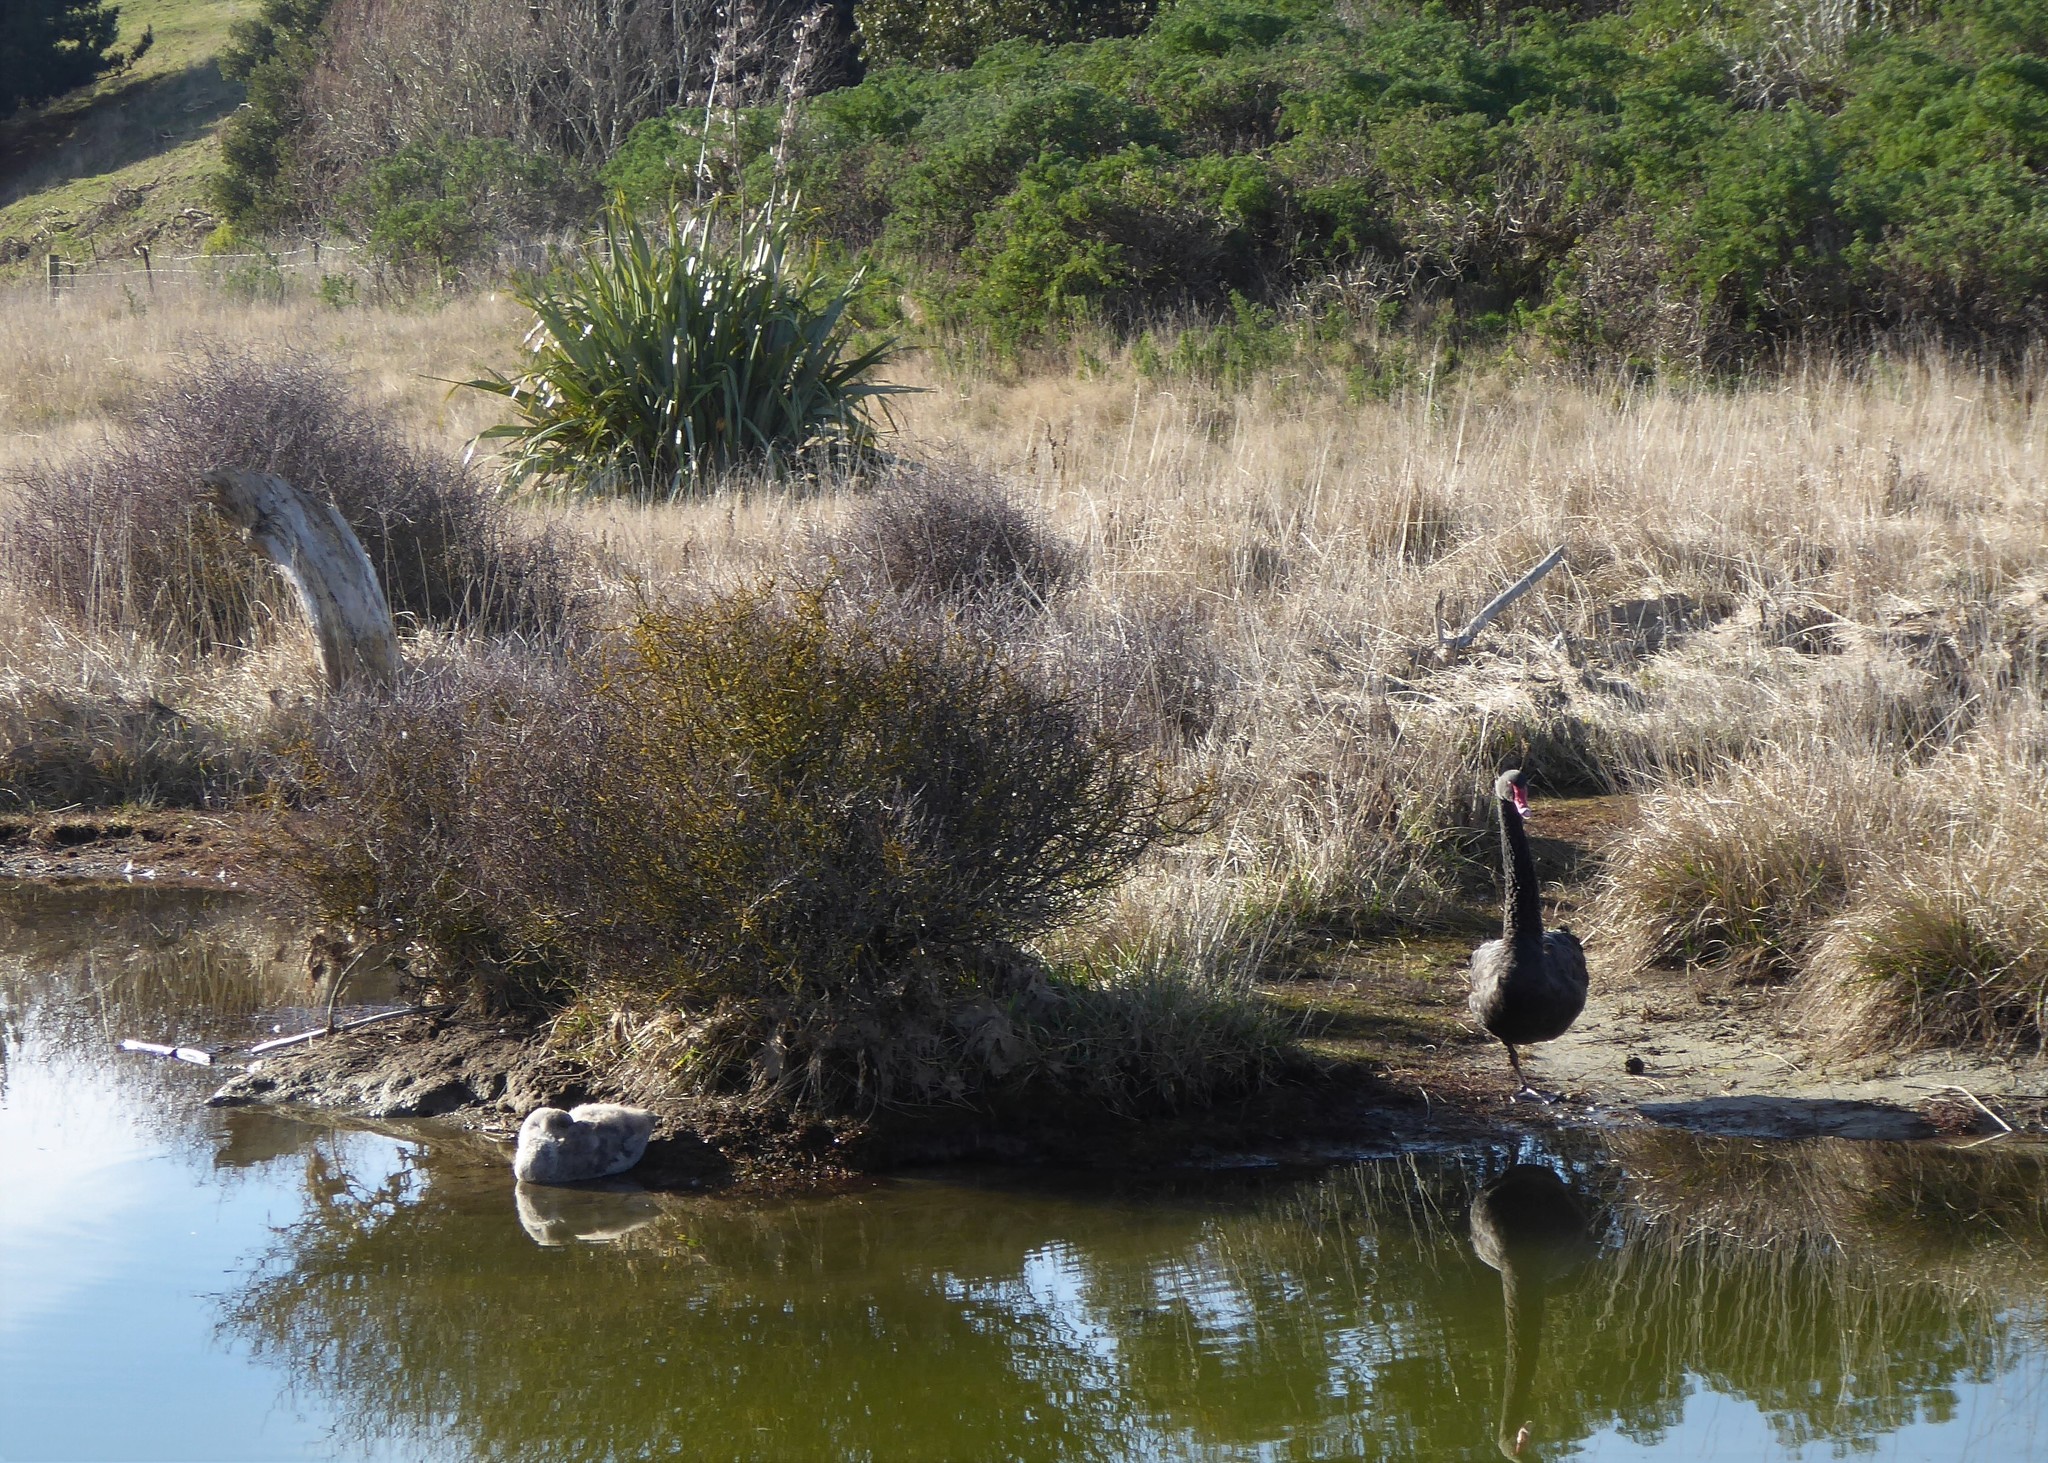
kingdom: Animalia
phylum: Chordata
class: Aves
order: Anseriformes
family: Anatidae
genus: Cygnus
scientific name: Cygnus atratus
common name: Black swan
